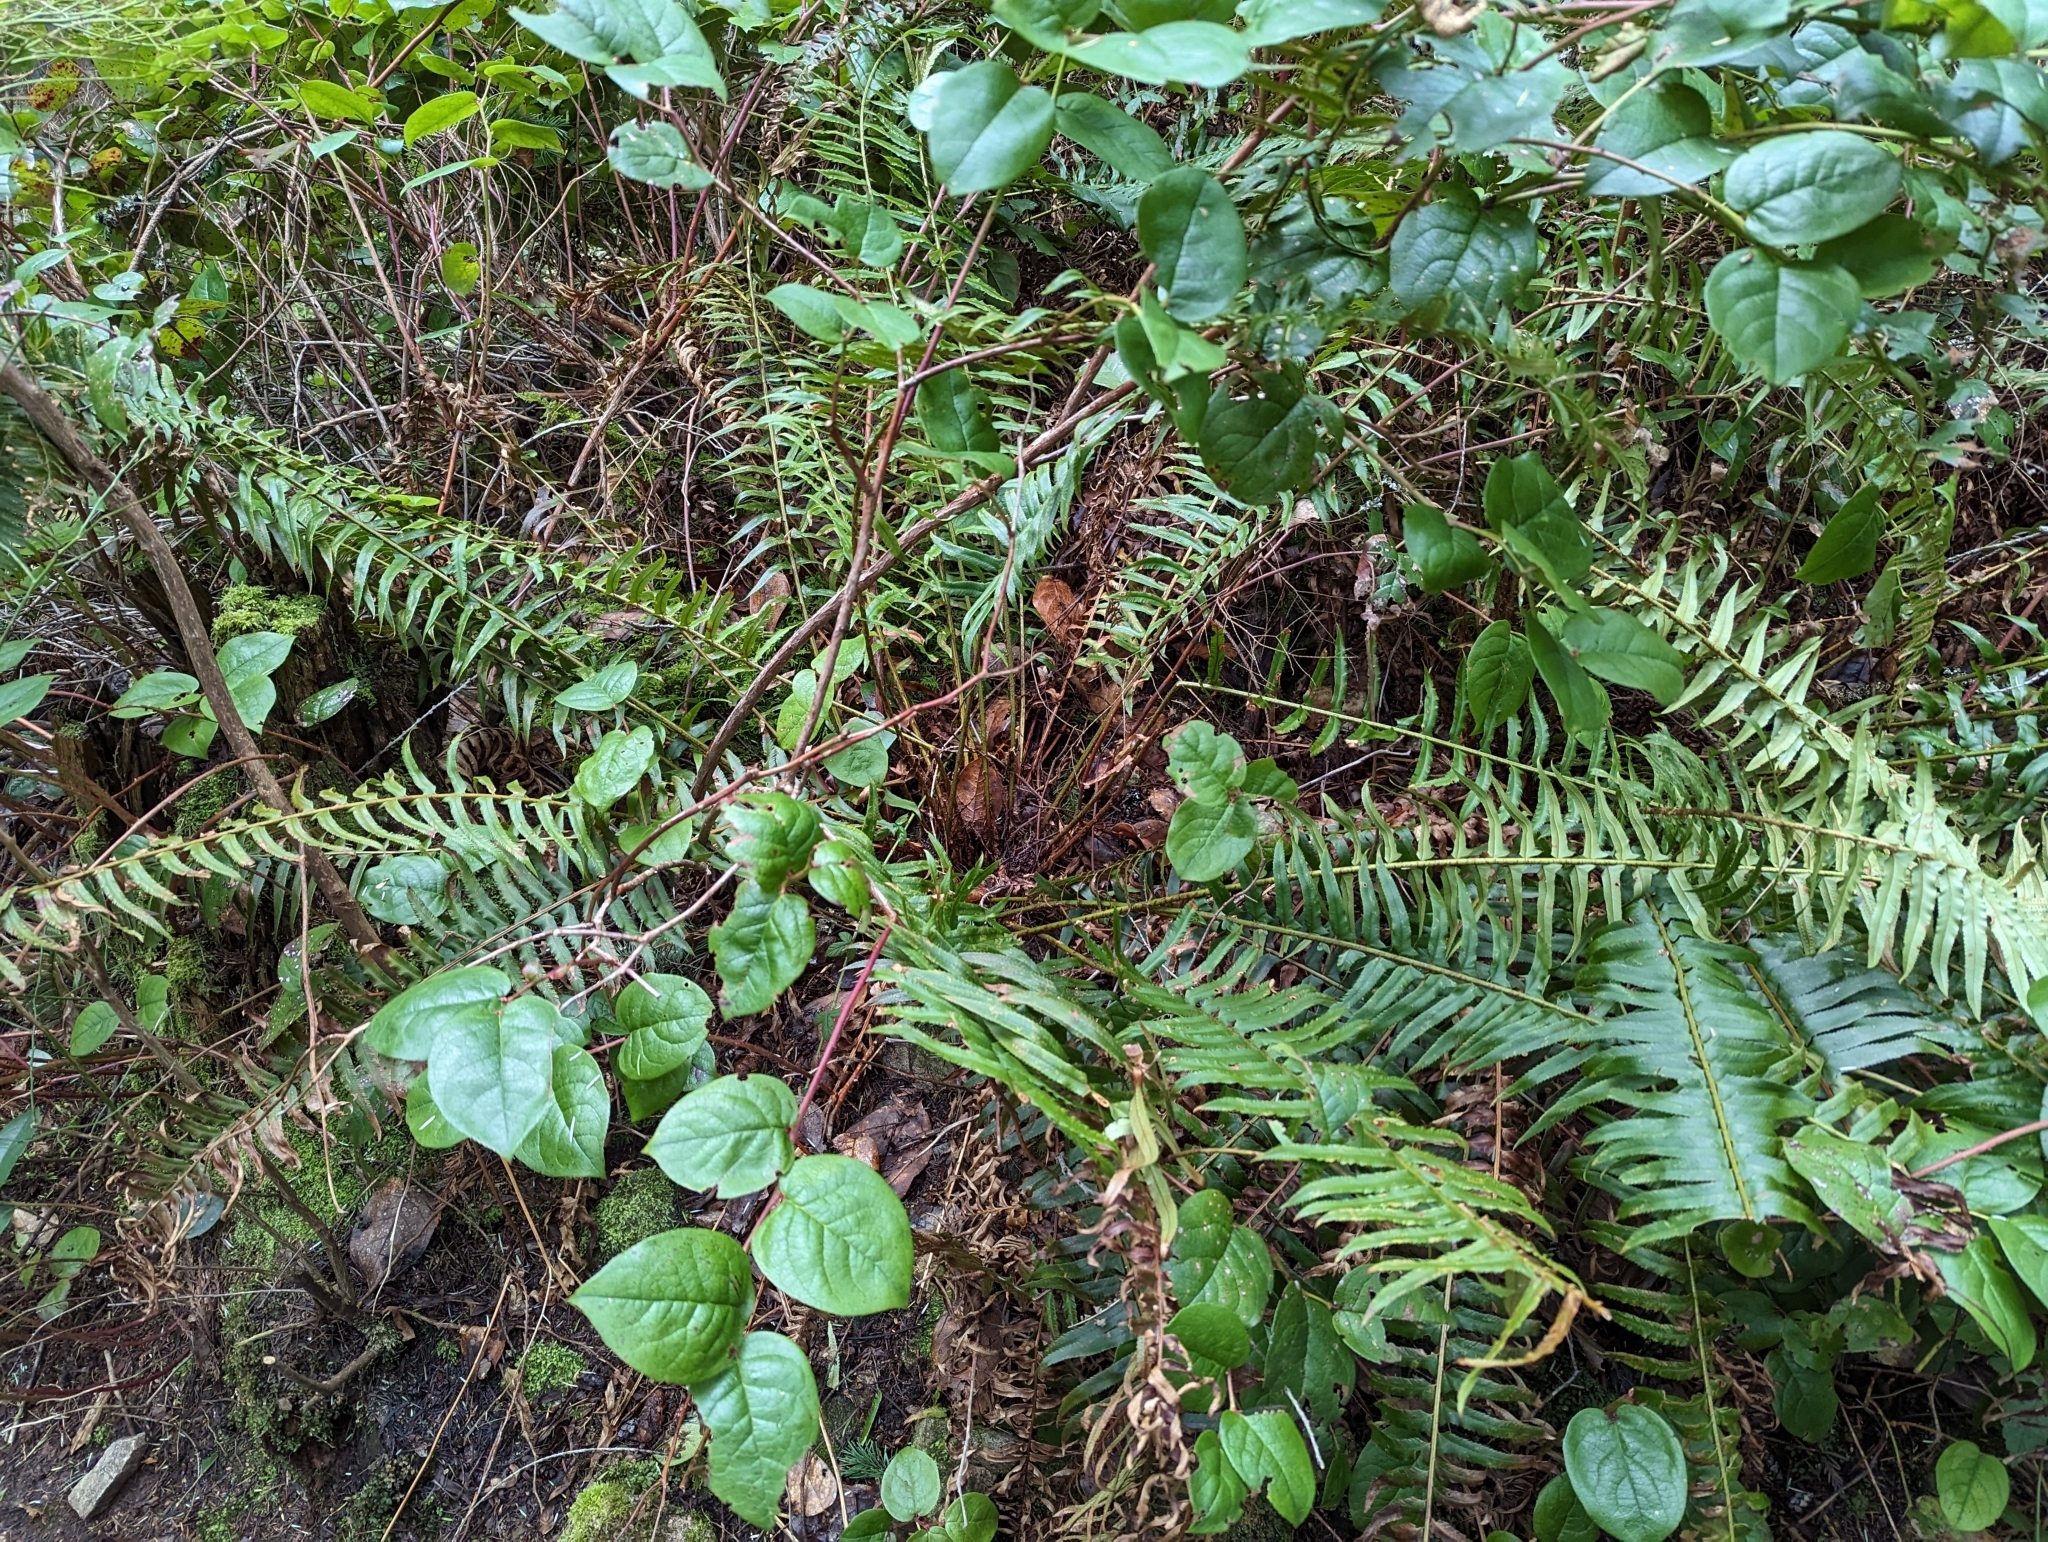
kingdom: Plantae
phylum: Tracheophyta
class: Magnoliopsida
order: Ericales
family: Ericaceae
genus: Gaultheria
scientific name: Gaultheria shallon
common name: Shallon
